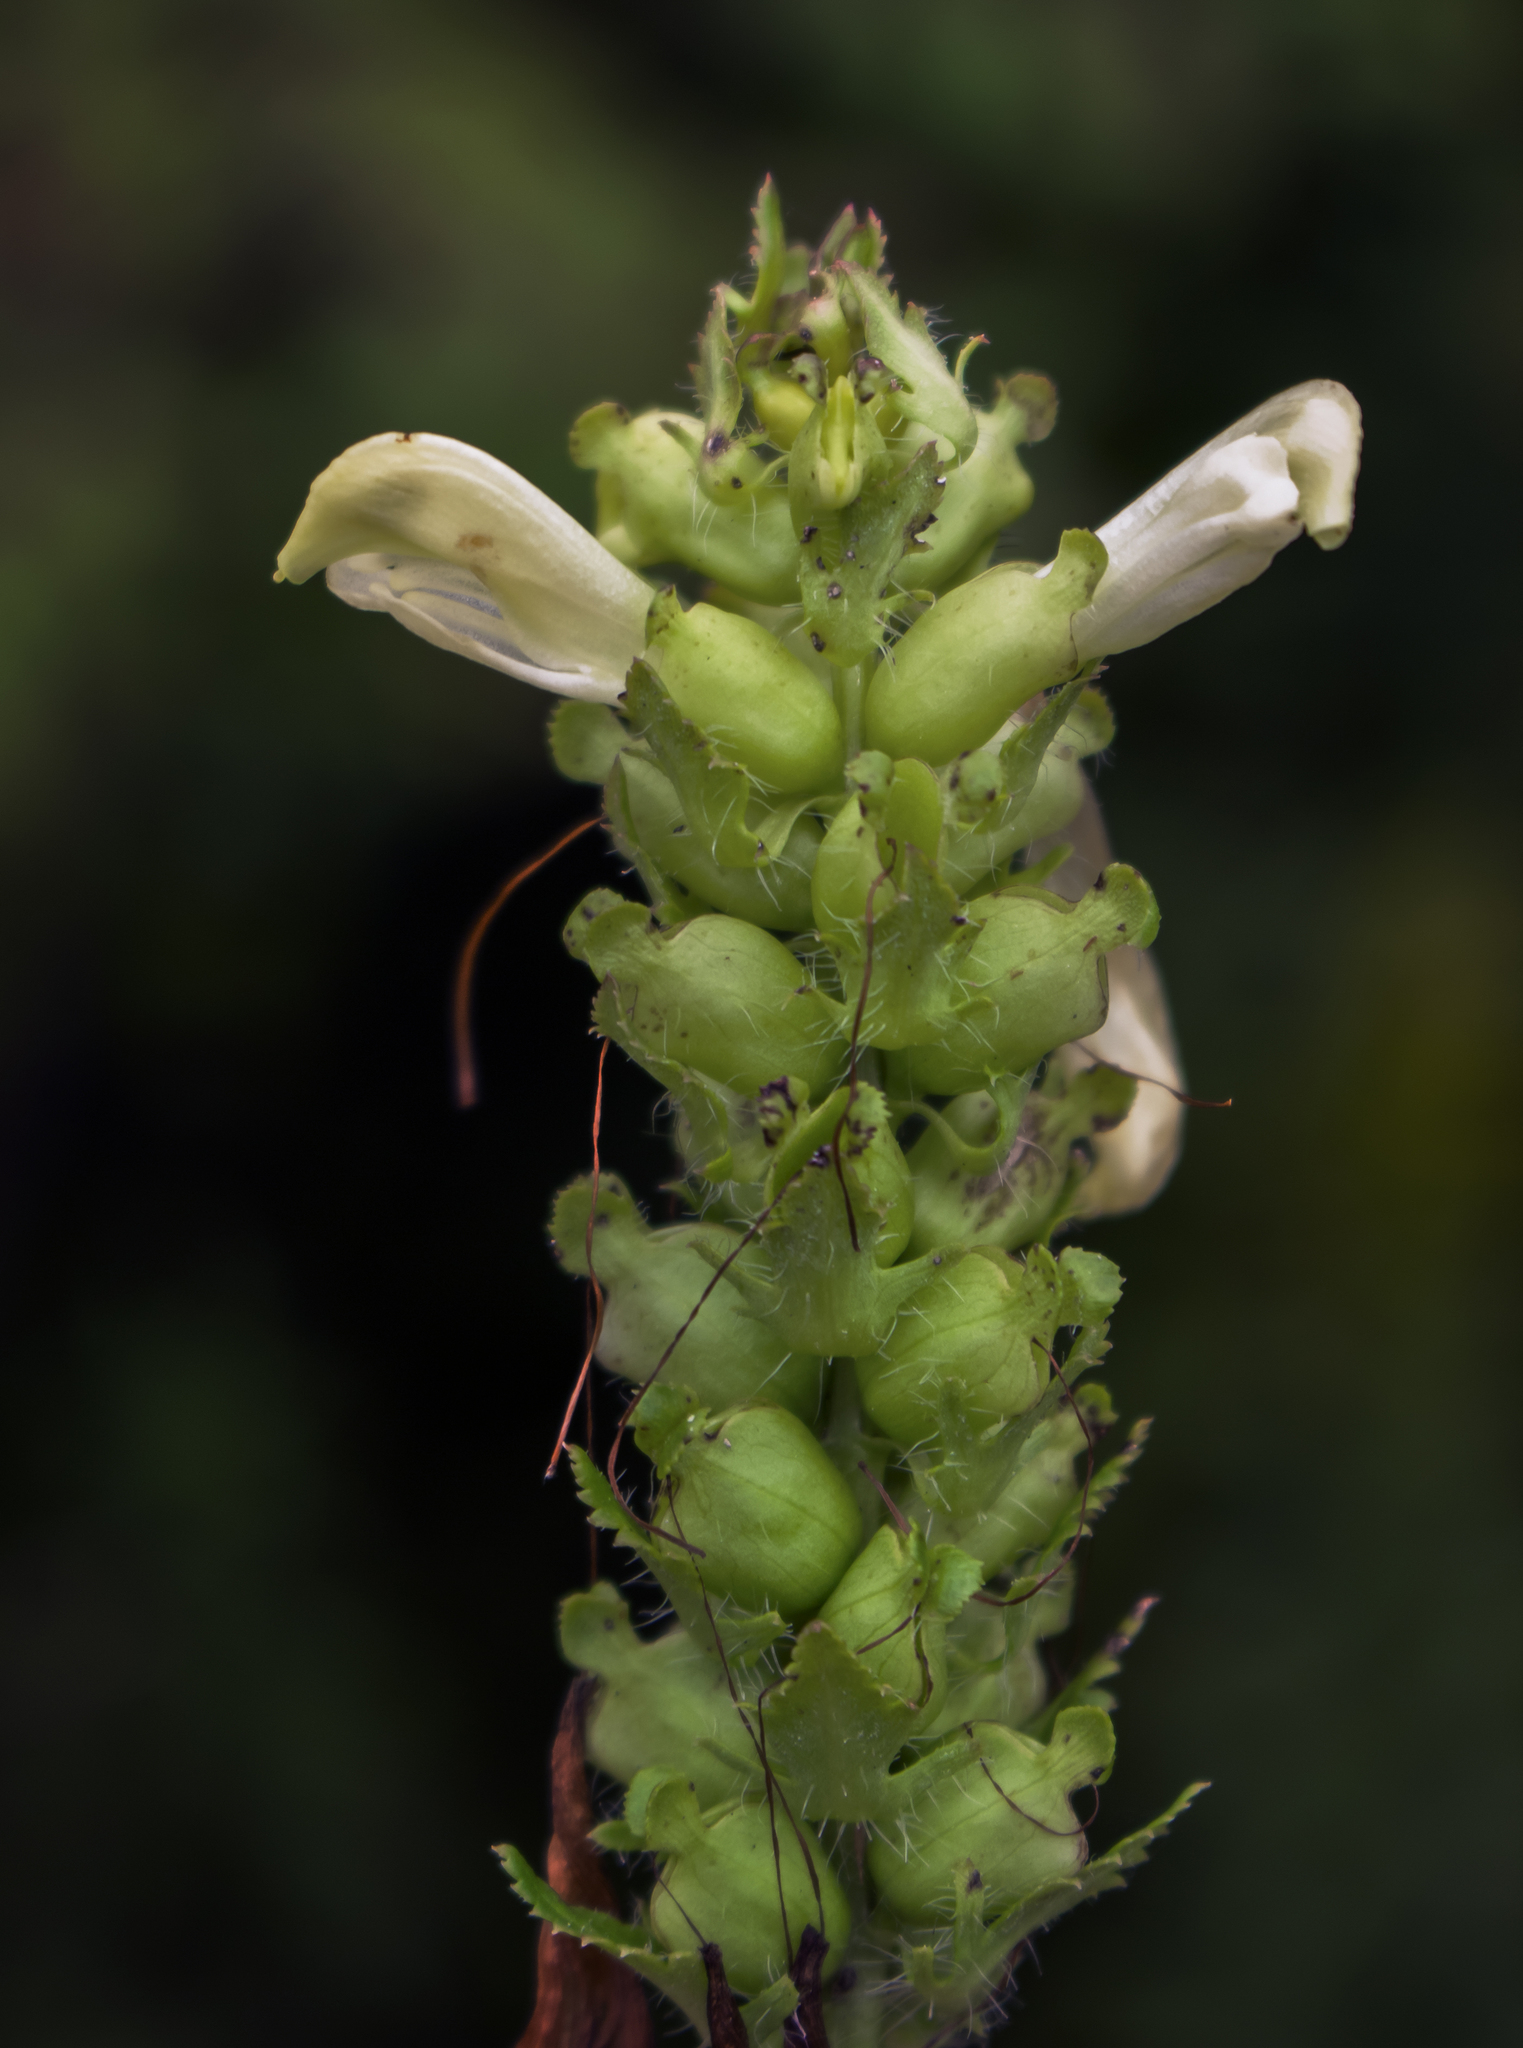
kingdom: Plantae
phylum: Tracheophyta
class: Magnoliopsida
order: Lamiales
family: Orobanchaceae
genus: Pedicularis
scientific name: Pedicularis lanceolata
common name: Swamp lousewort
